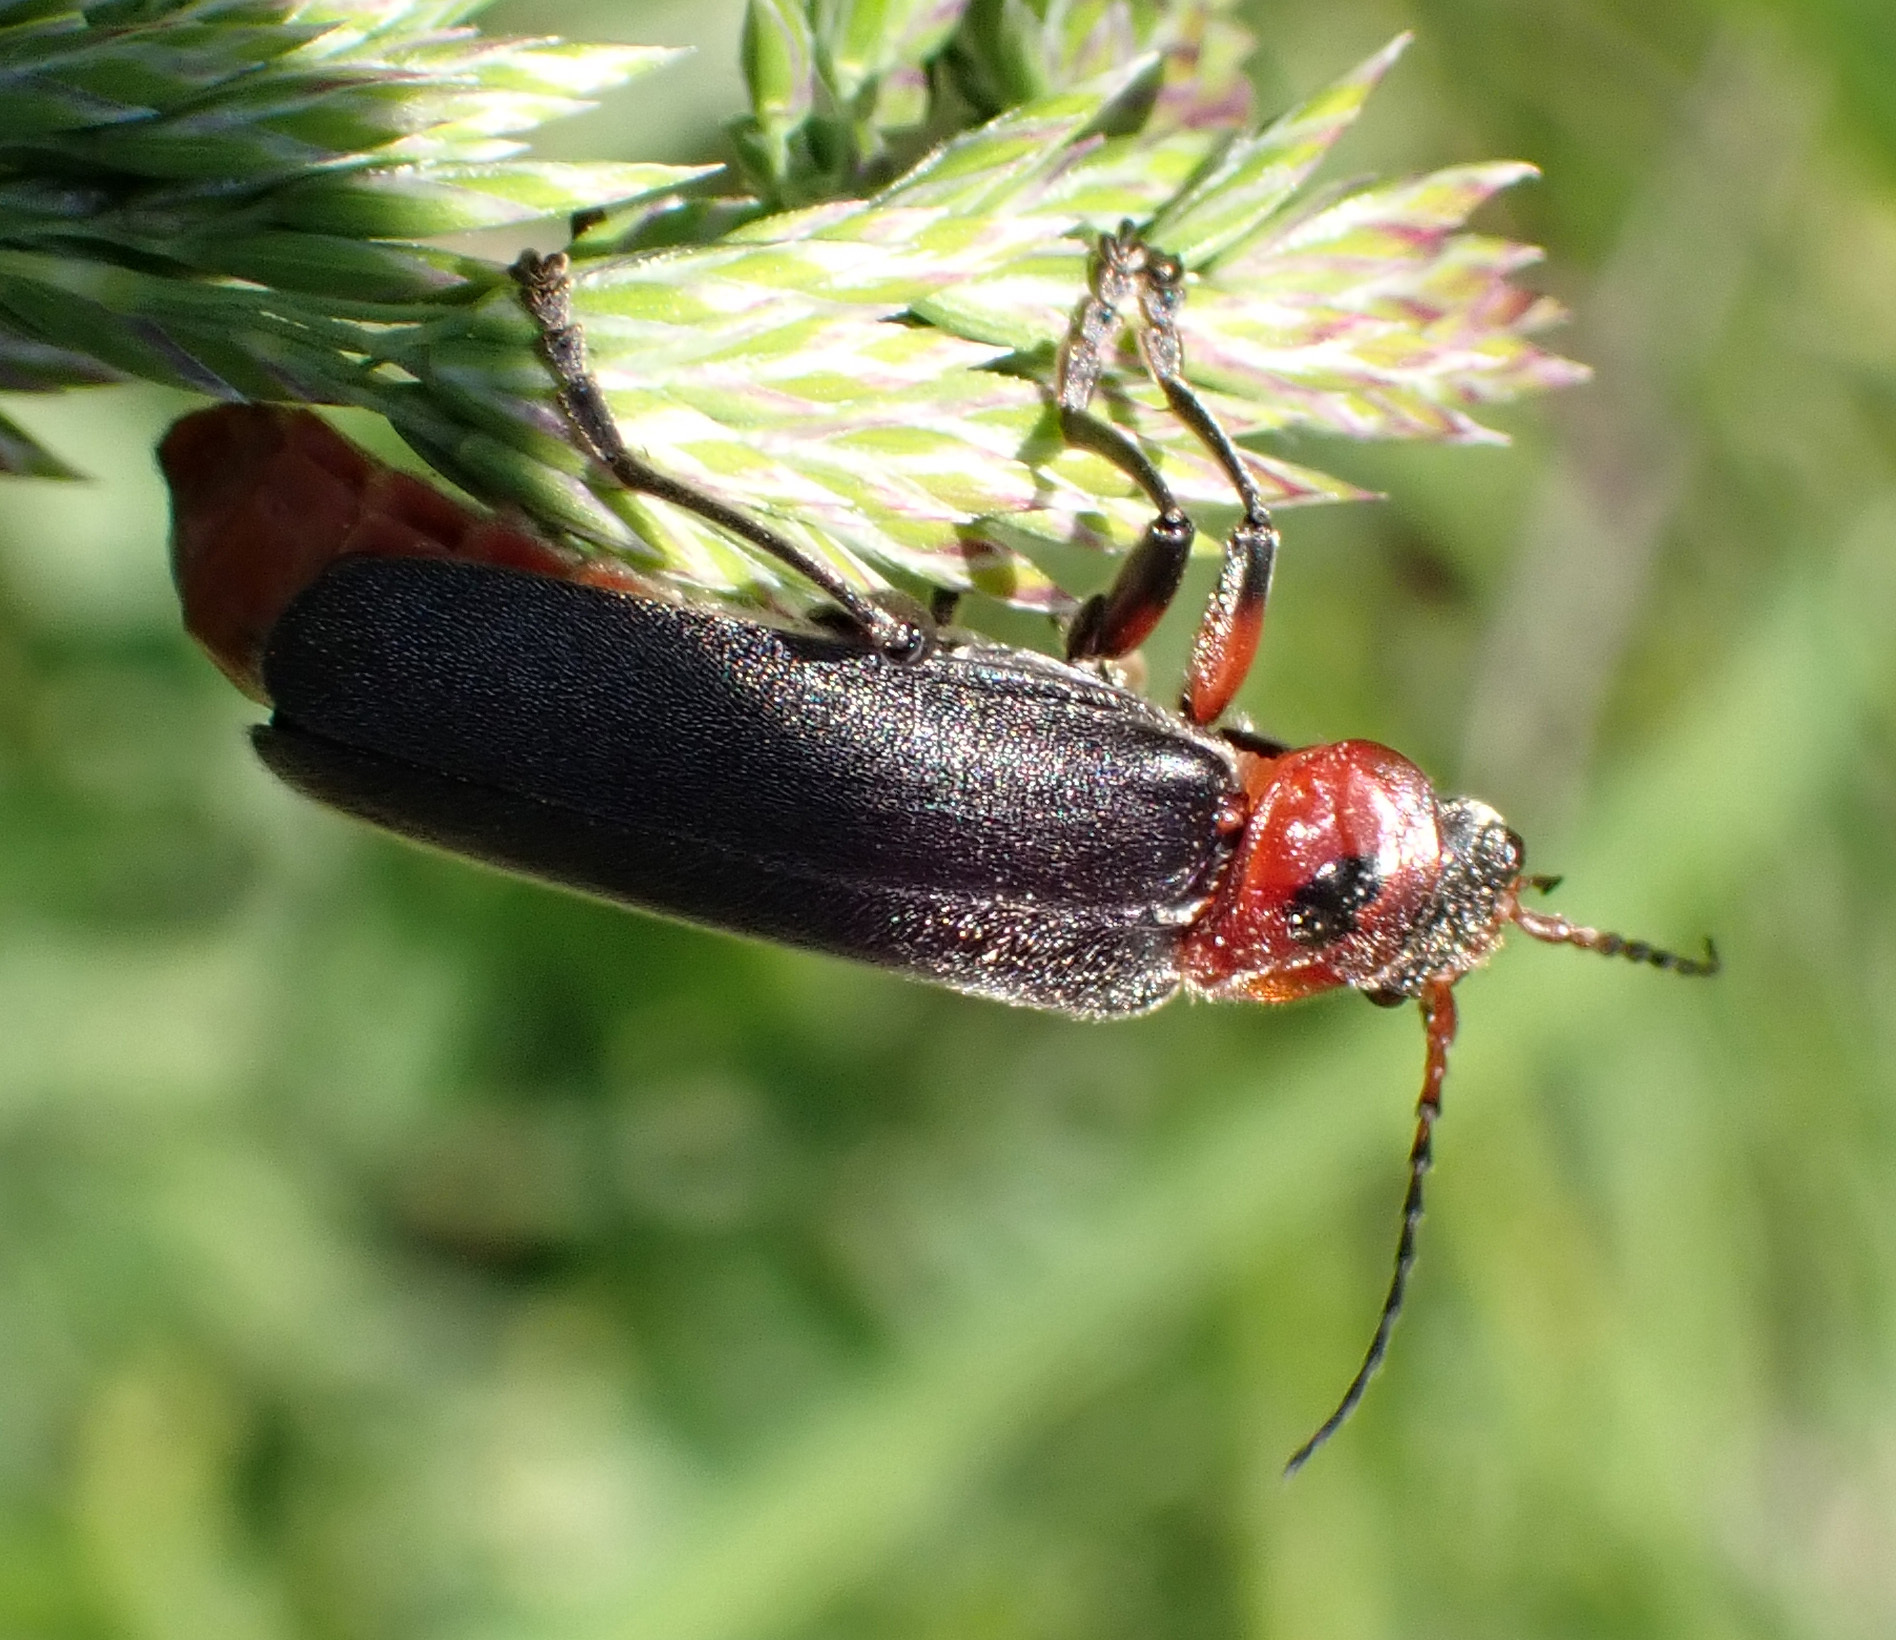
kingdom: Animalia
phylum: Arthropoda
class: Insecta
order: Coleoptera
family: Cantharidae
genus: Cantharis
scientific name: Cantharis rustica
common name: Soldier beetle
